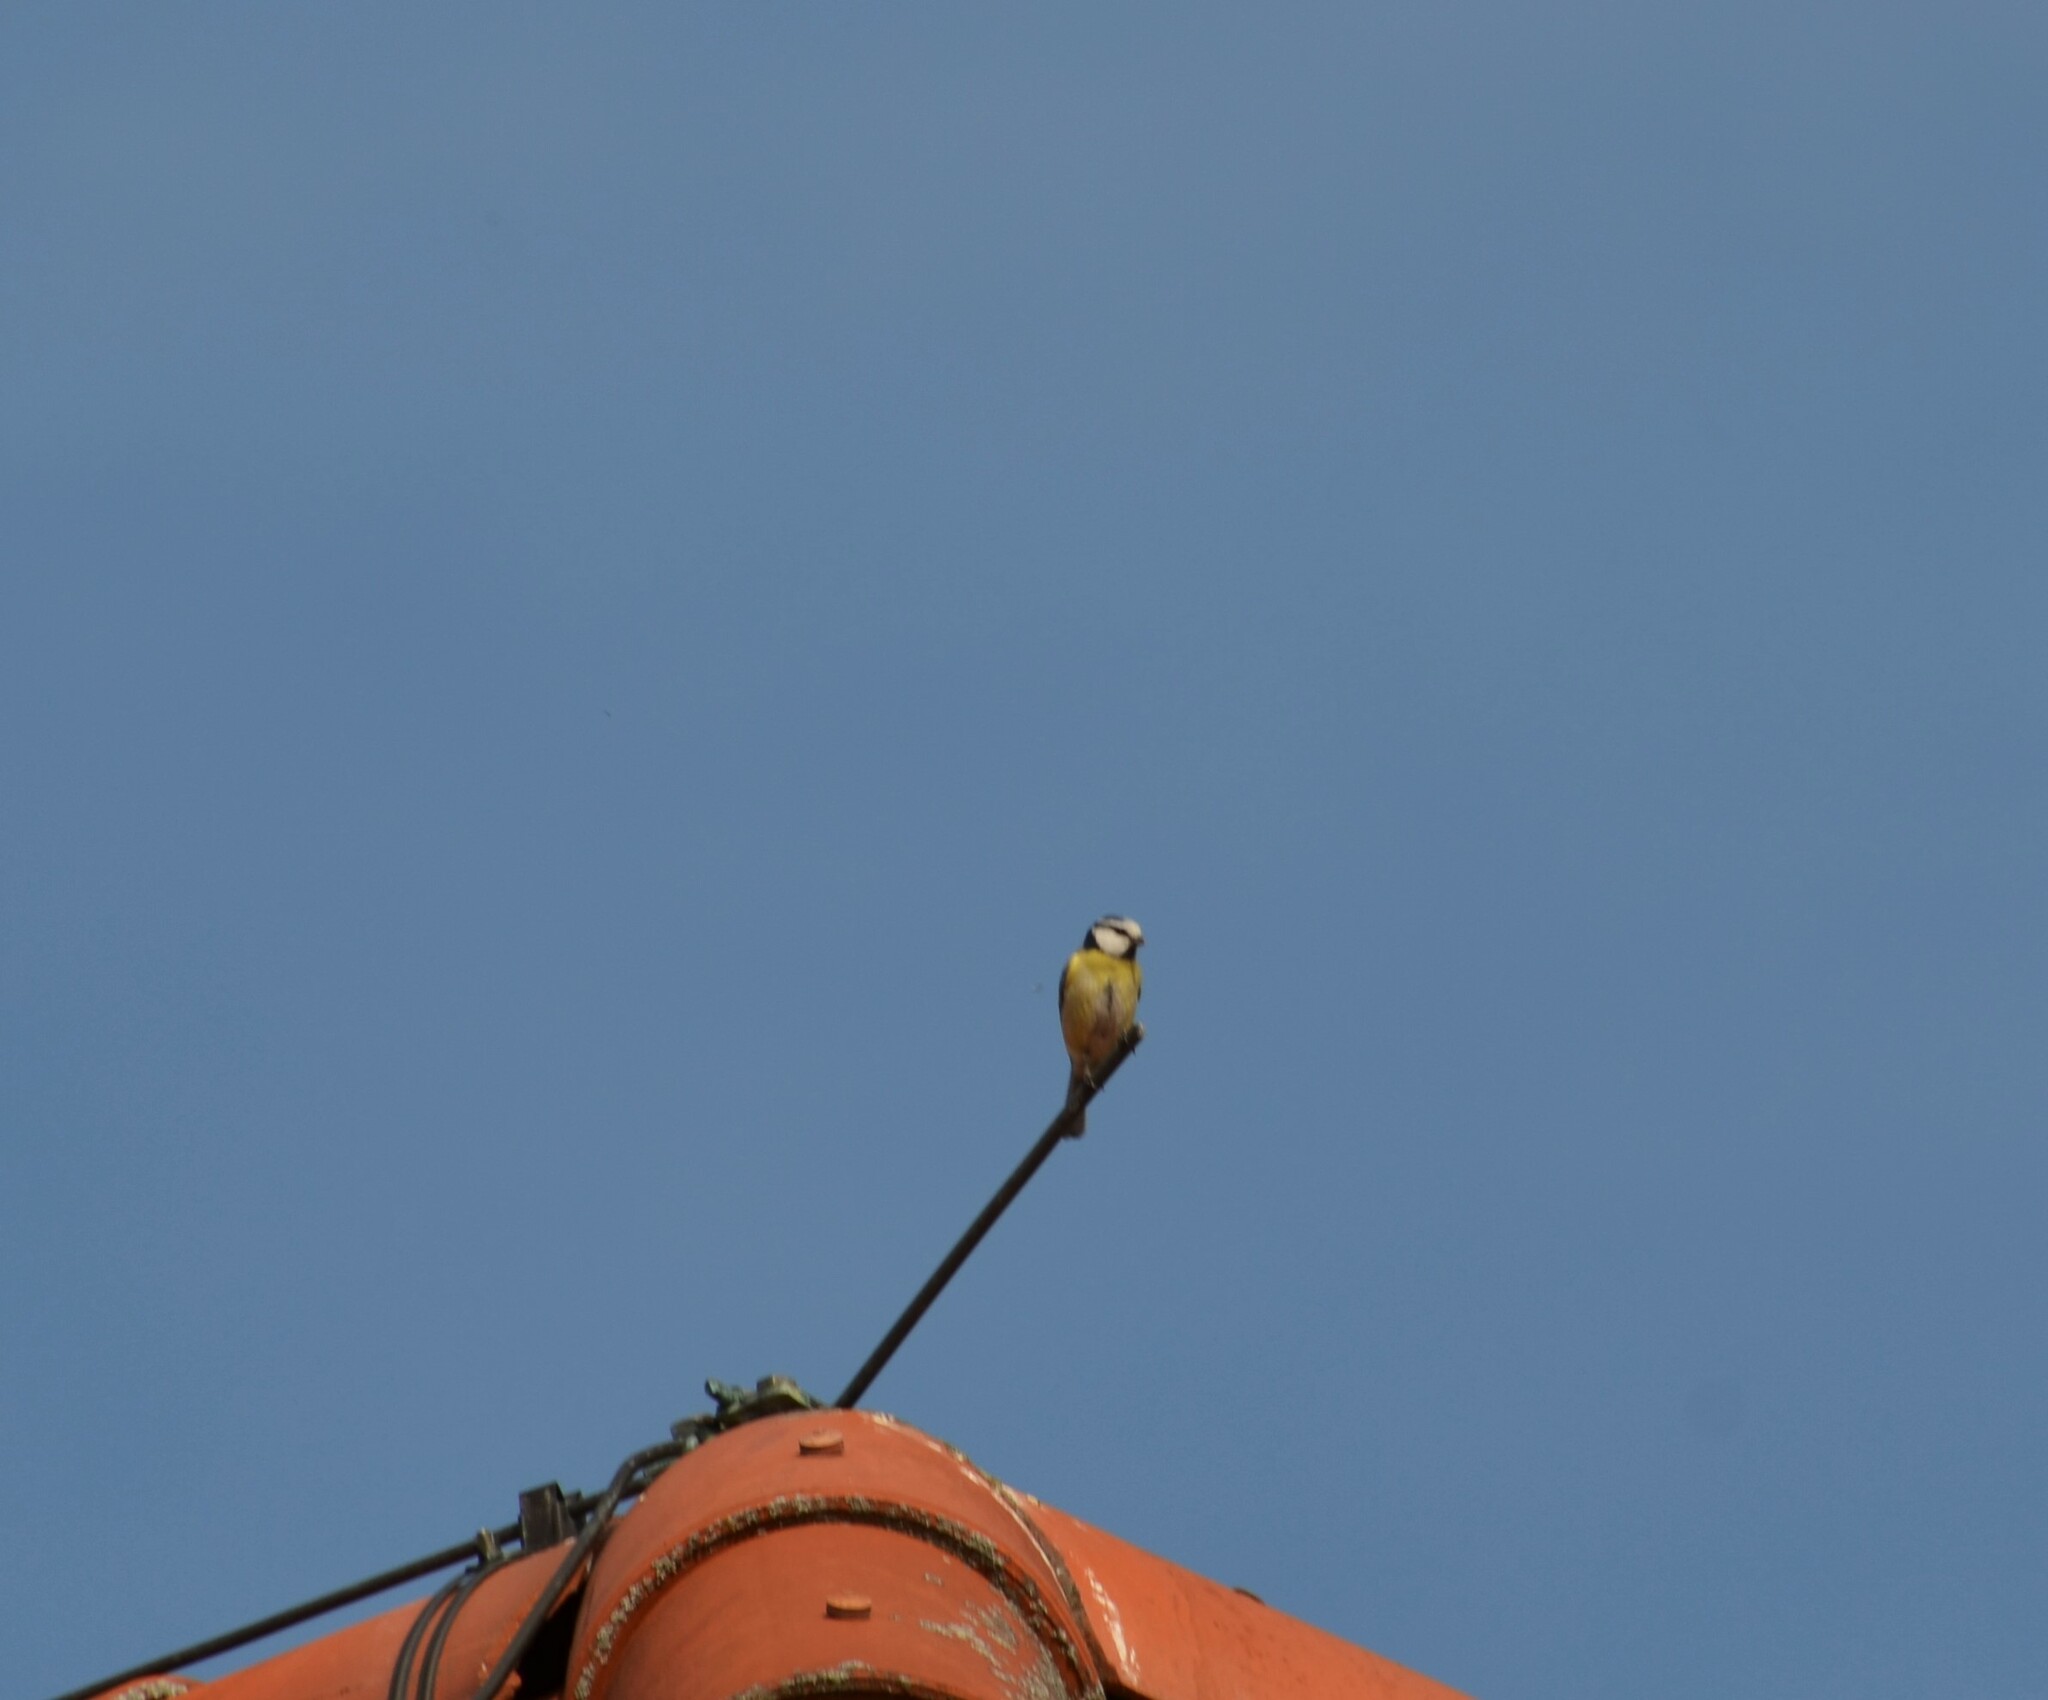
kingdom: Animalia
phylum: Chordata
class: Aves
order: Passeriformes
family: Paridae
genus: Cyanistes
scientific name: Cyanistes caeruleus
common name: Eurasian blue tit
